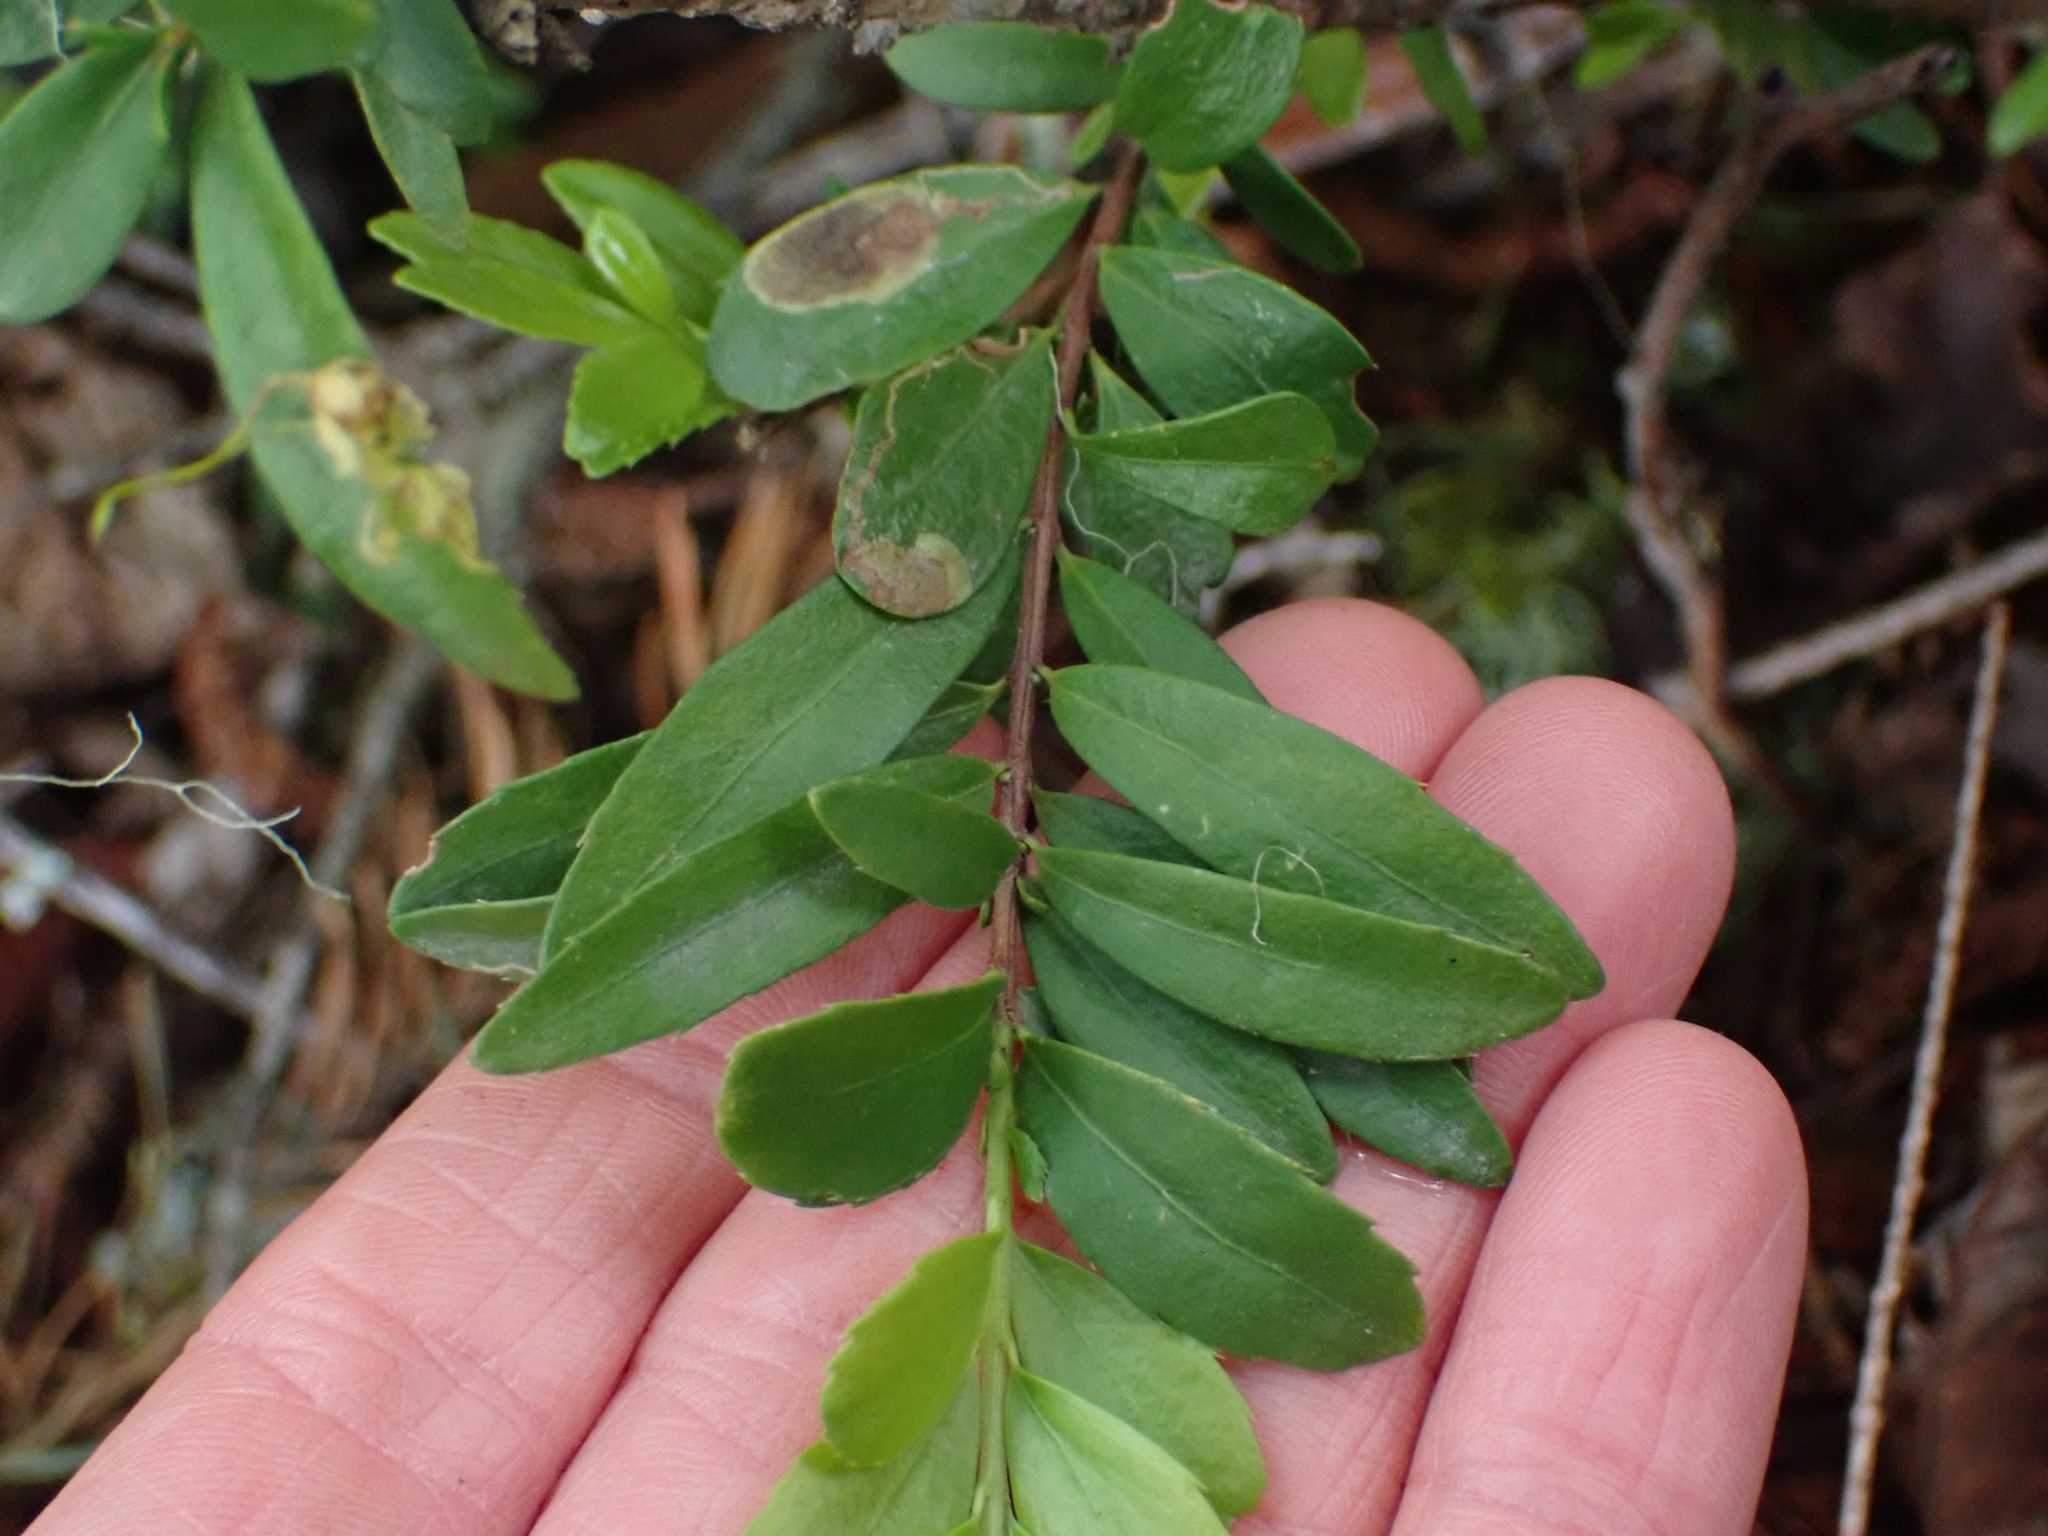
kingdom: Plantae
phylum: Tracheophyta
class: Magnoliopsida
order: Celastrales
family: Celastraceae
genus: Paxistima
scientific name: Paxistima myrsinites
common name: Mountain-lover
